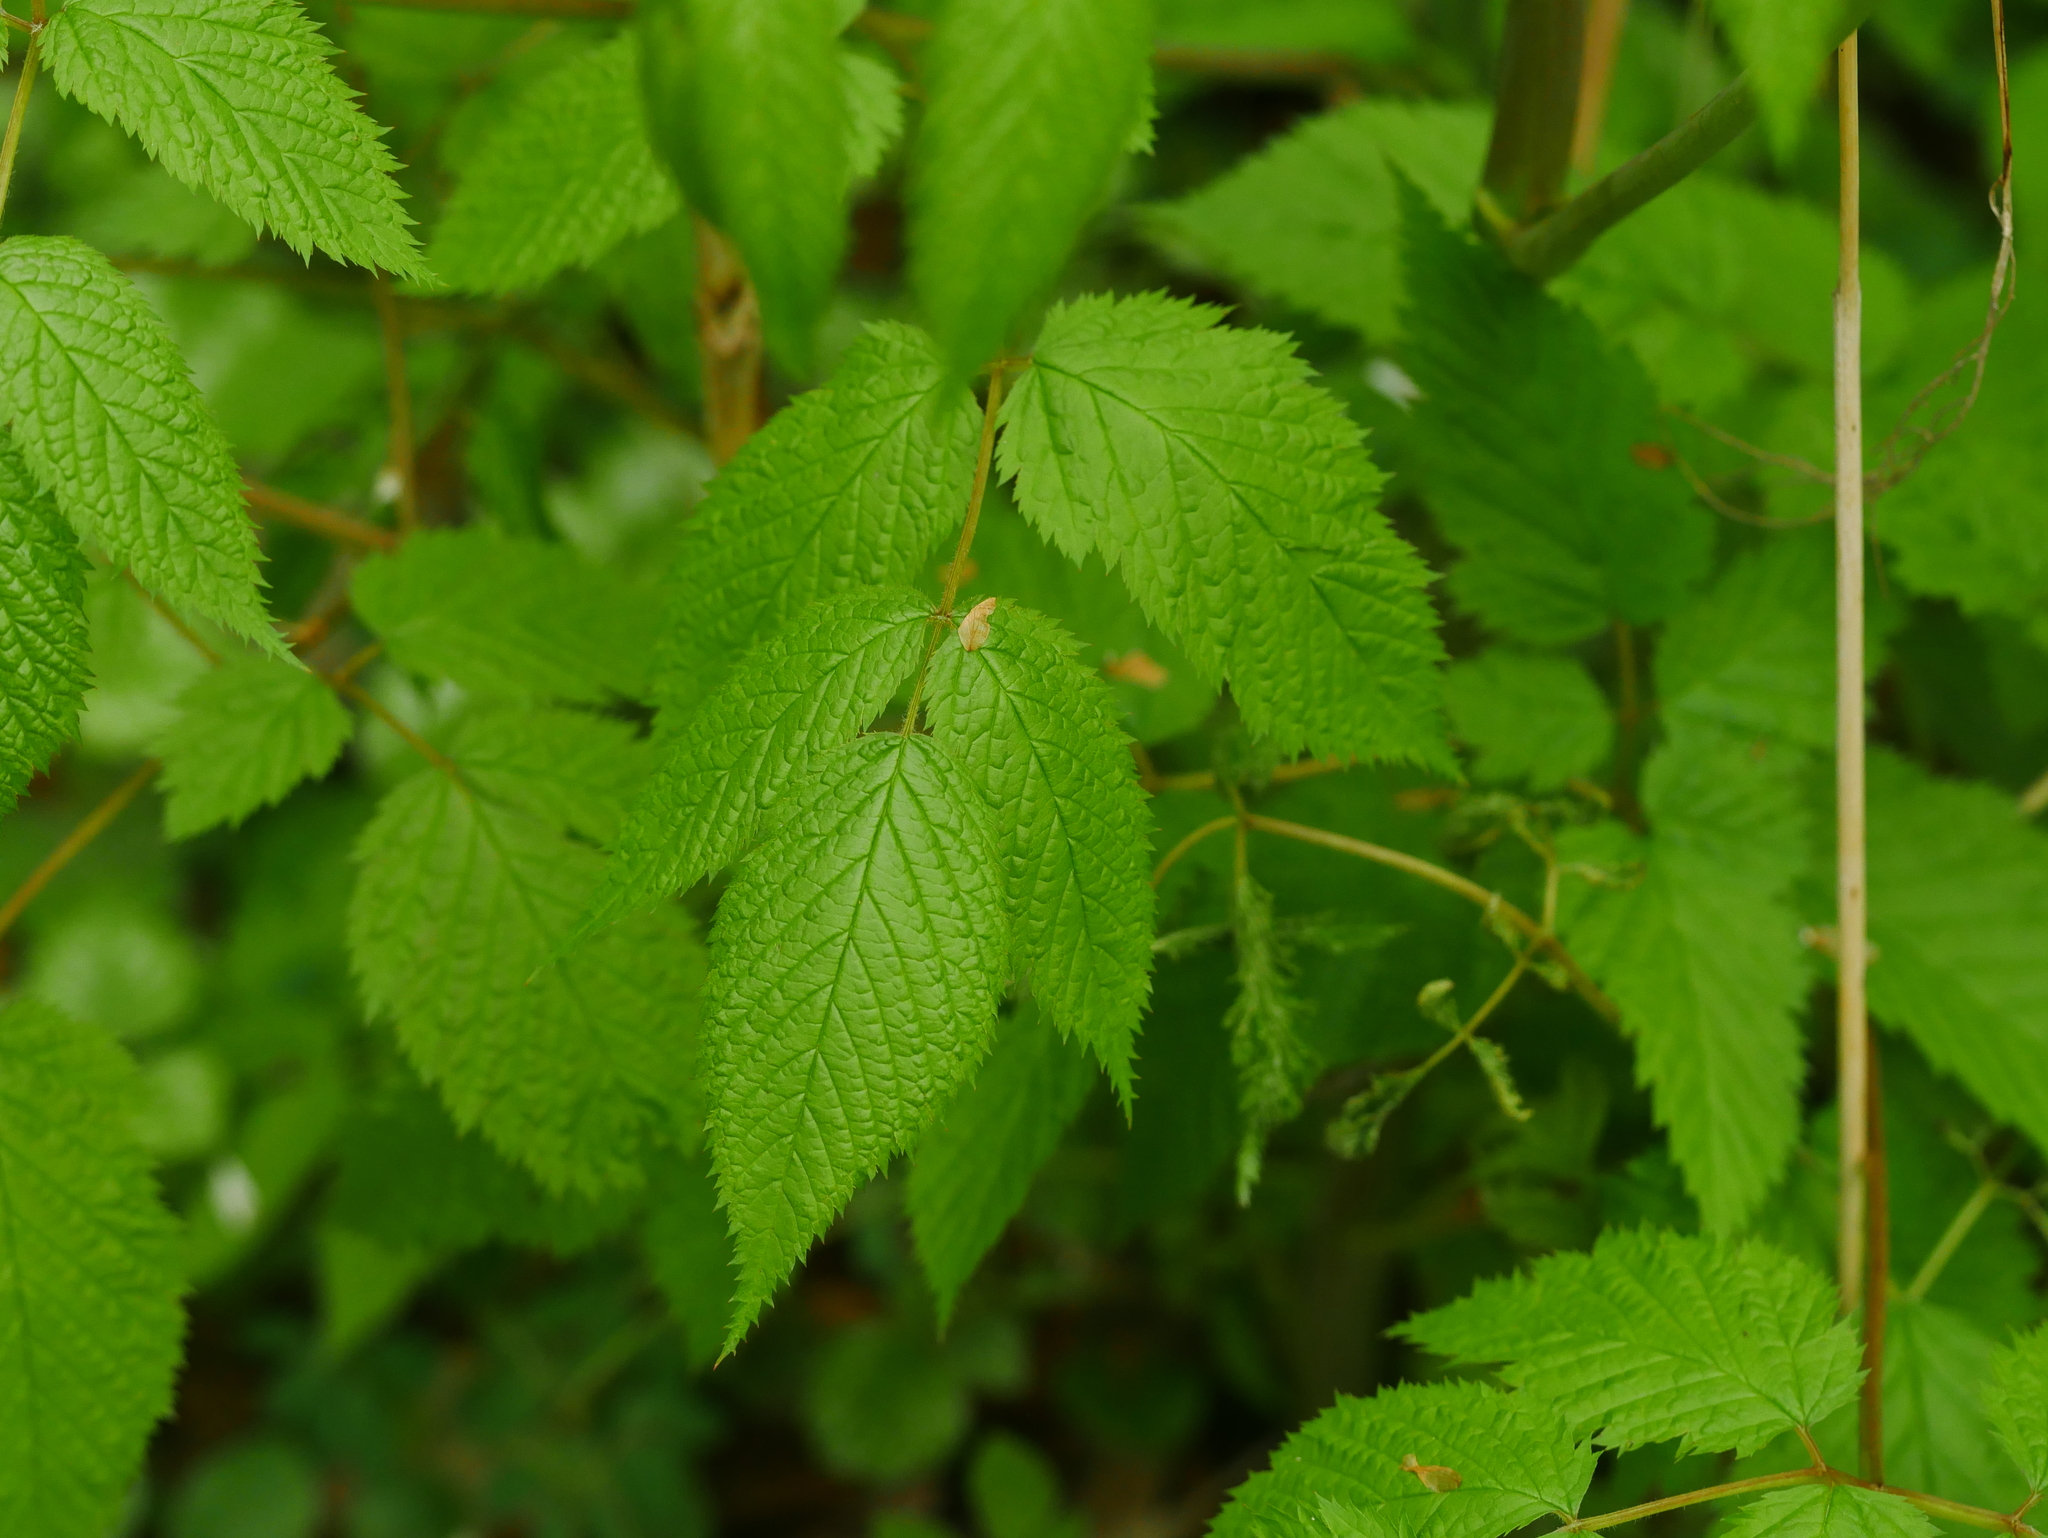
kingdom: Plantae
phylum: Tracheophyta
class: Magnoliopsida
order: Rosales
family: Rosaceae
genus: Aruncus
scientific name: Aruncus dioicus
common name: Buck's-beard
